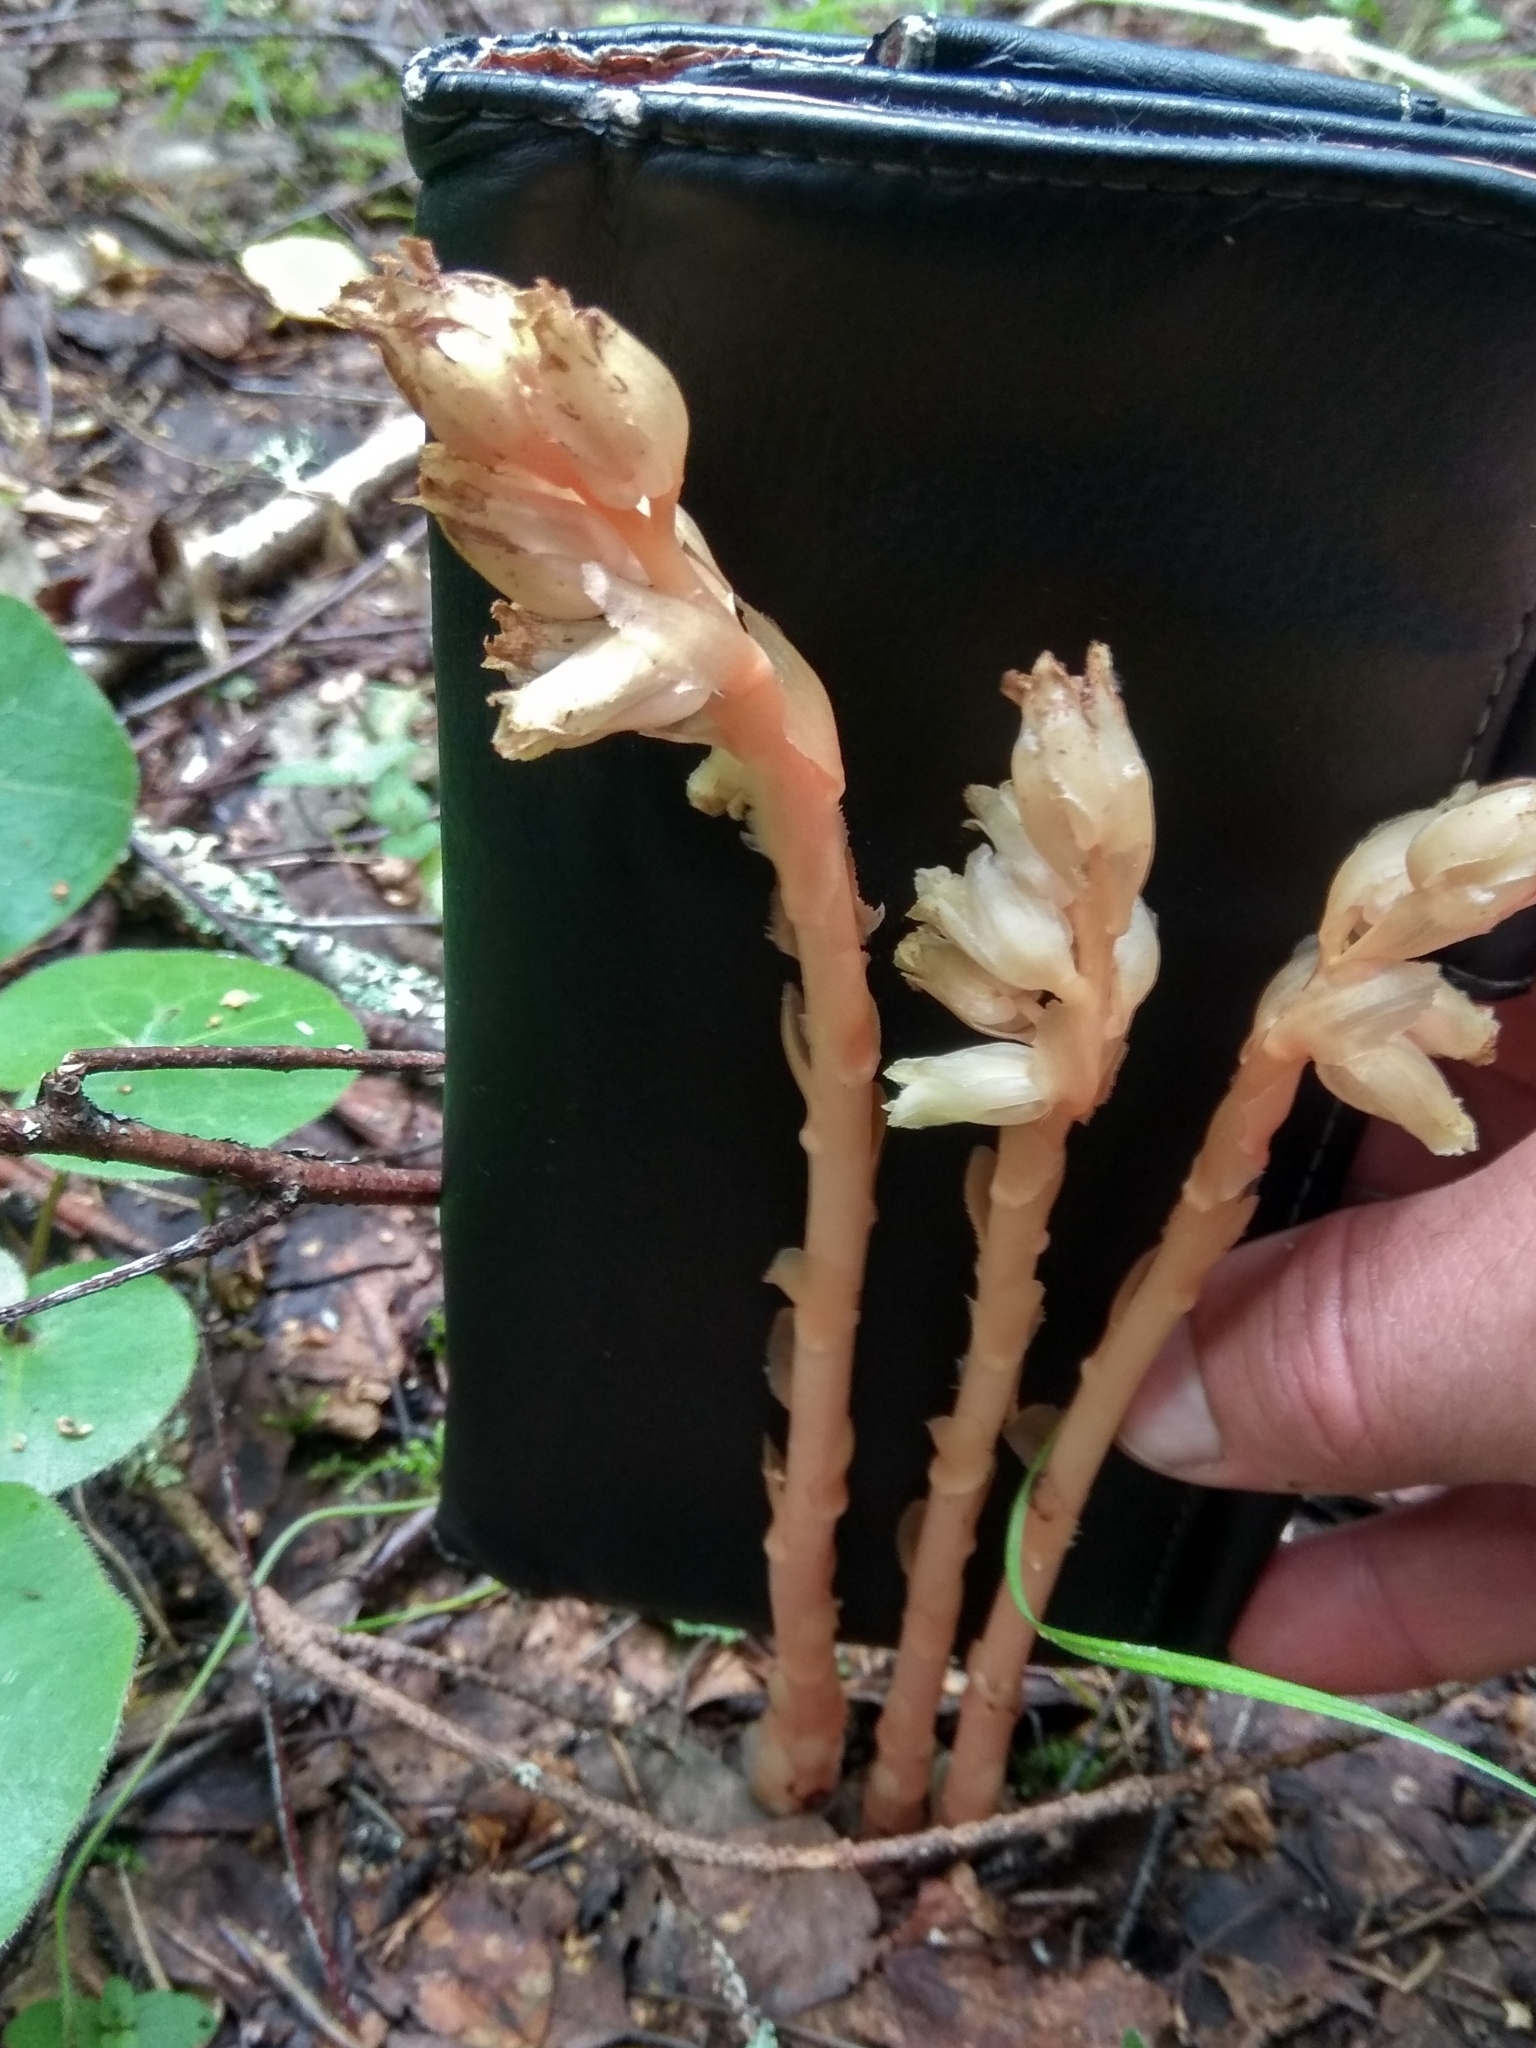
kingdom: Plantae
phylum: Tracheophyta
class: Magnoliopsida
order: Ericales
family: Ericaceae
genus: Hypopitys
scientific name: Hypopitys monotropa
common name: Yellow bird's-nest
